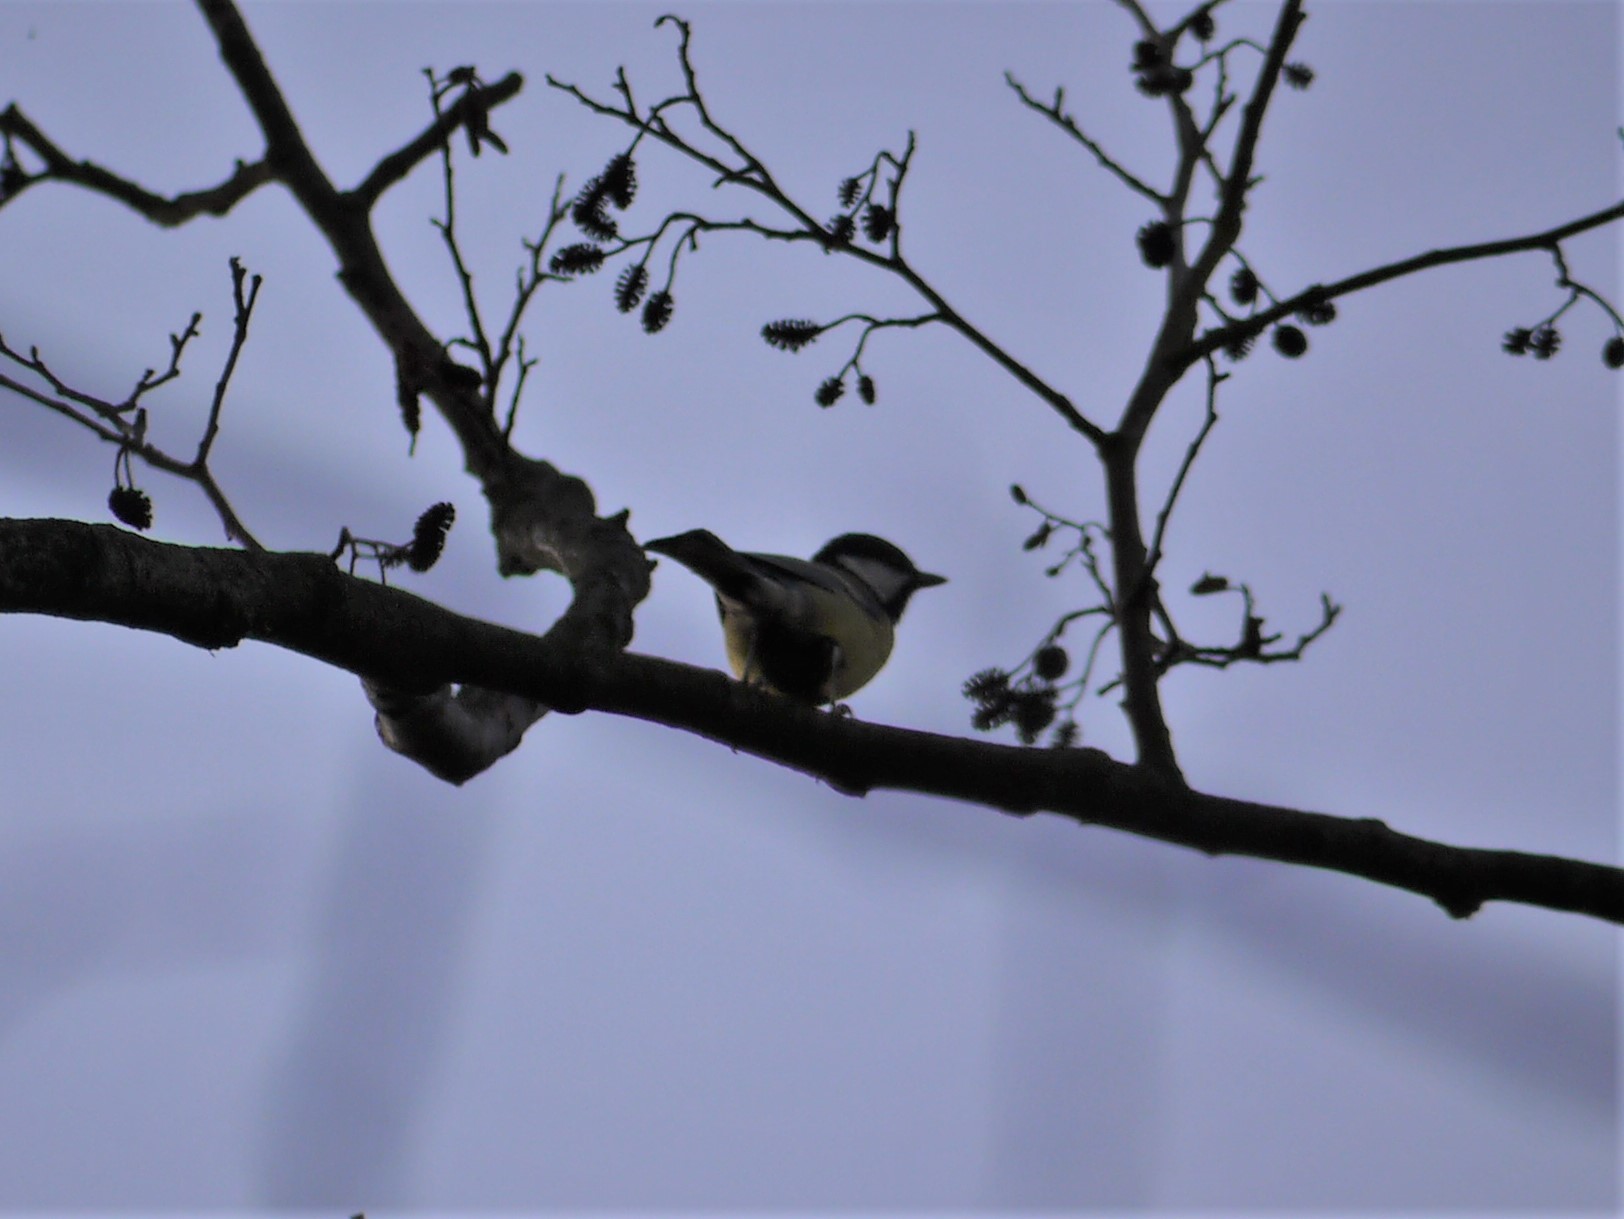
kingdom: Animalia
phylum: Chordata
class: Aves
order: Passeriformes
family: Paridae
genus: Parus
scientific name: Parus major
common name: Great tit
